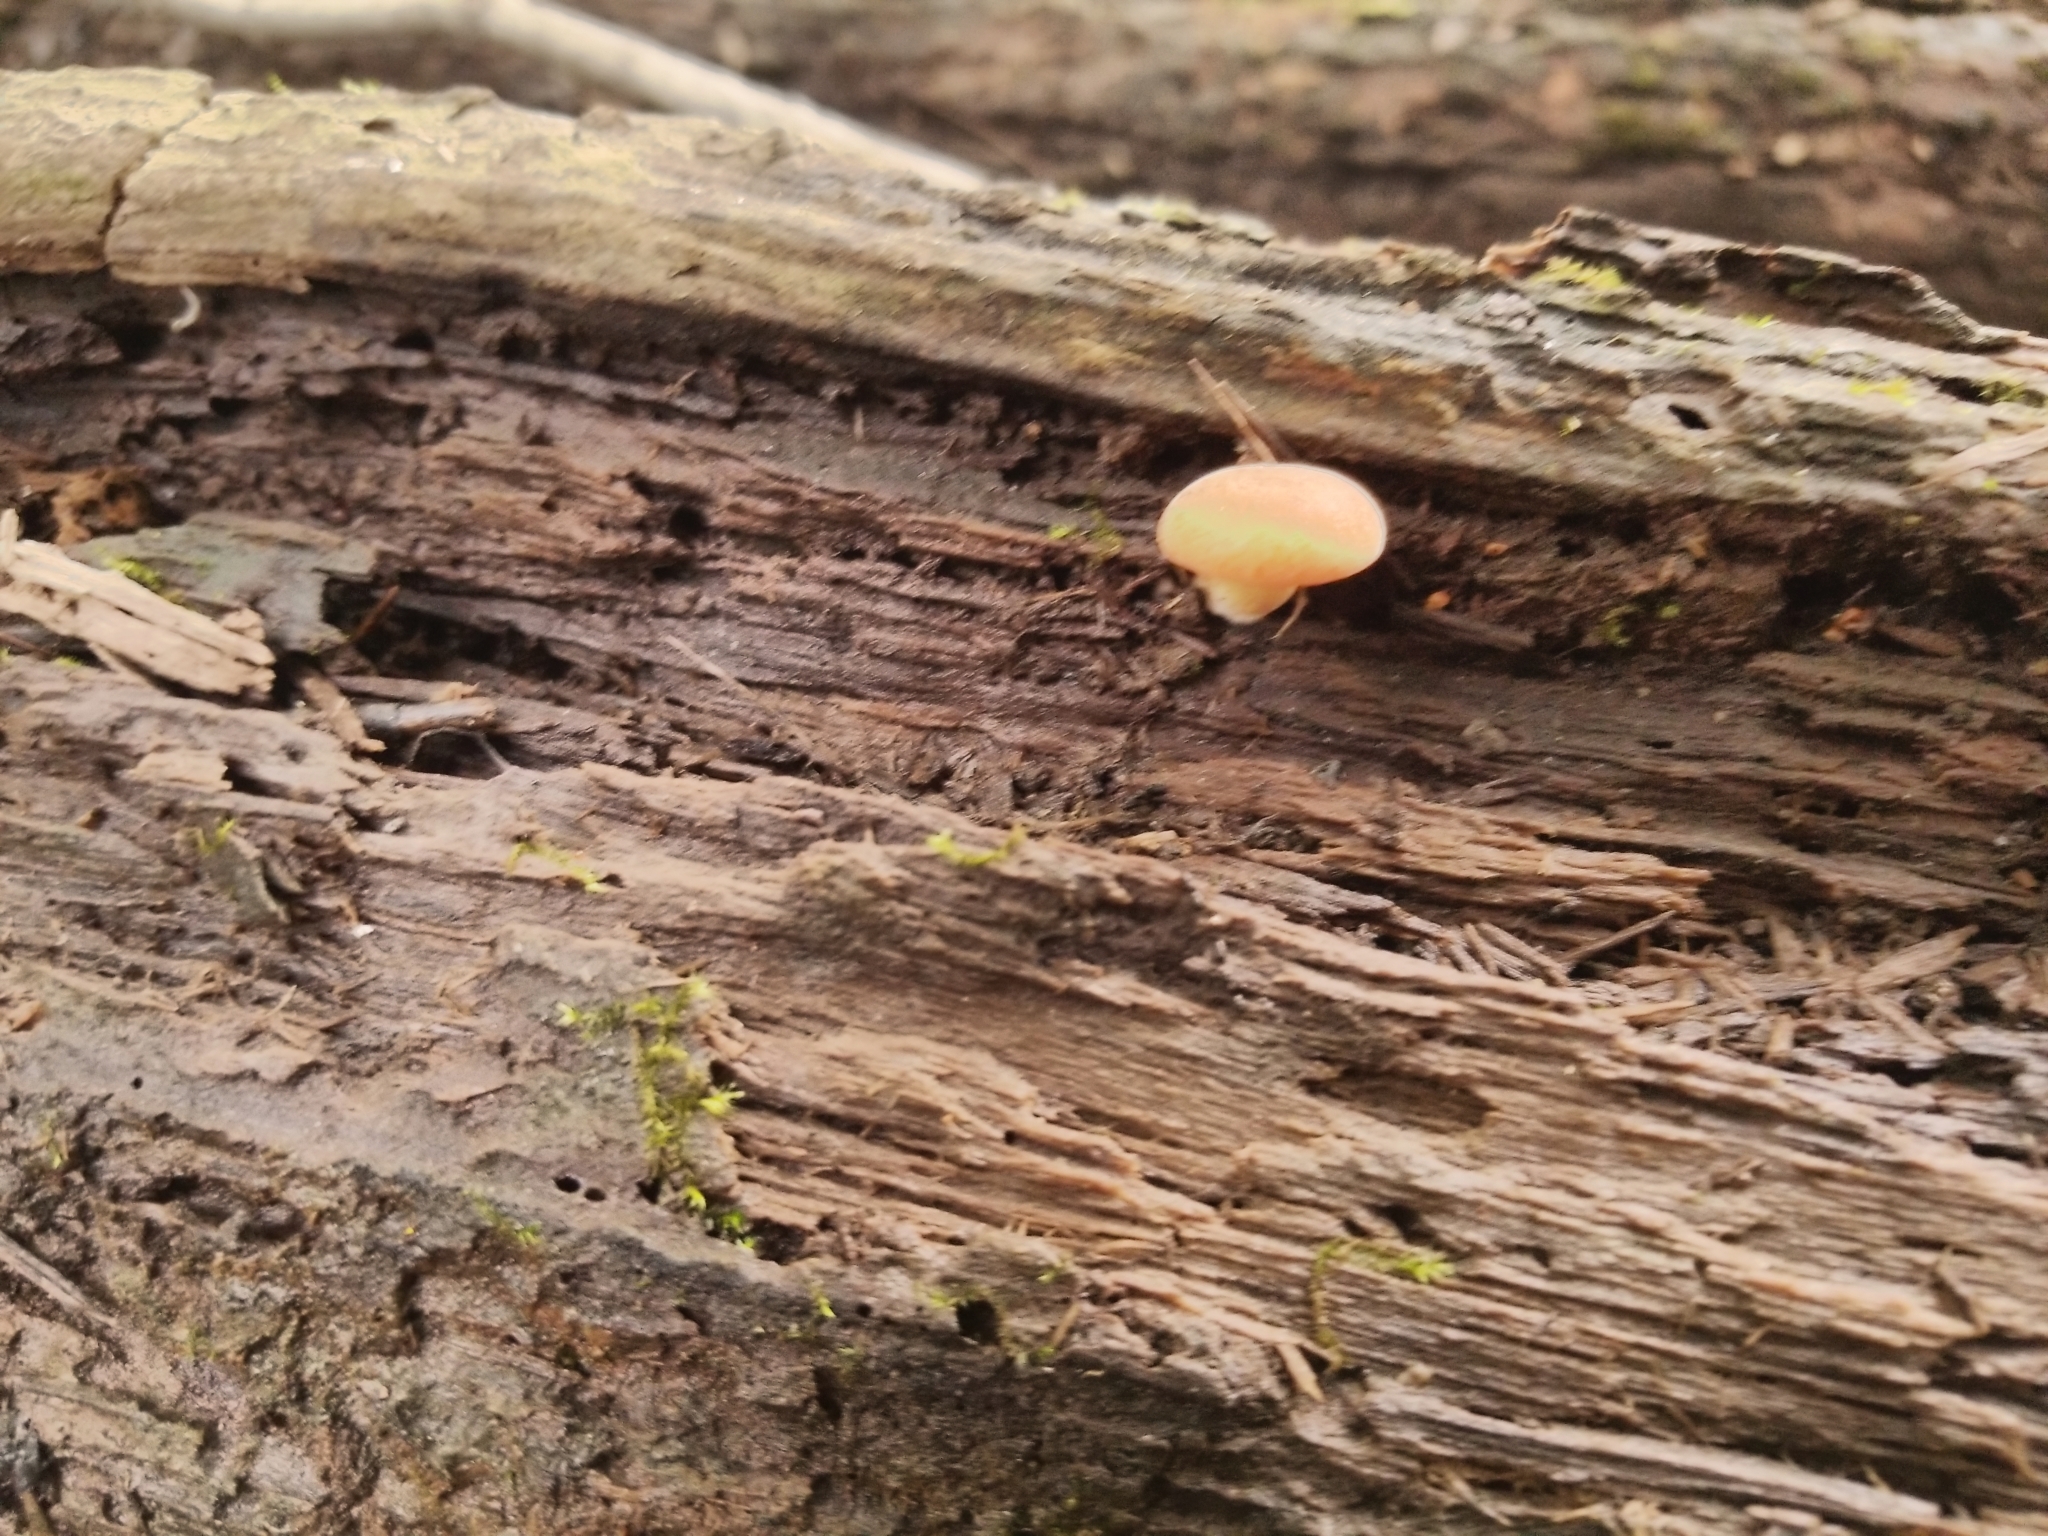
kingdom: Fungi
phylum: Basidiomycota
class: Agaricomycetes
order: Agaricales
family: Physalacriaceae
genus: Rhodotus
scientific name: Rhodotus palmatus
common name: Wrinkled peach
